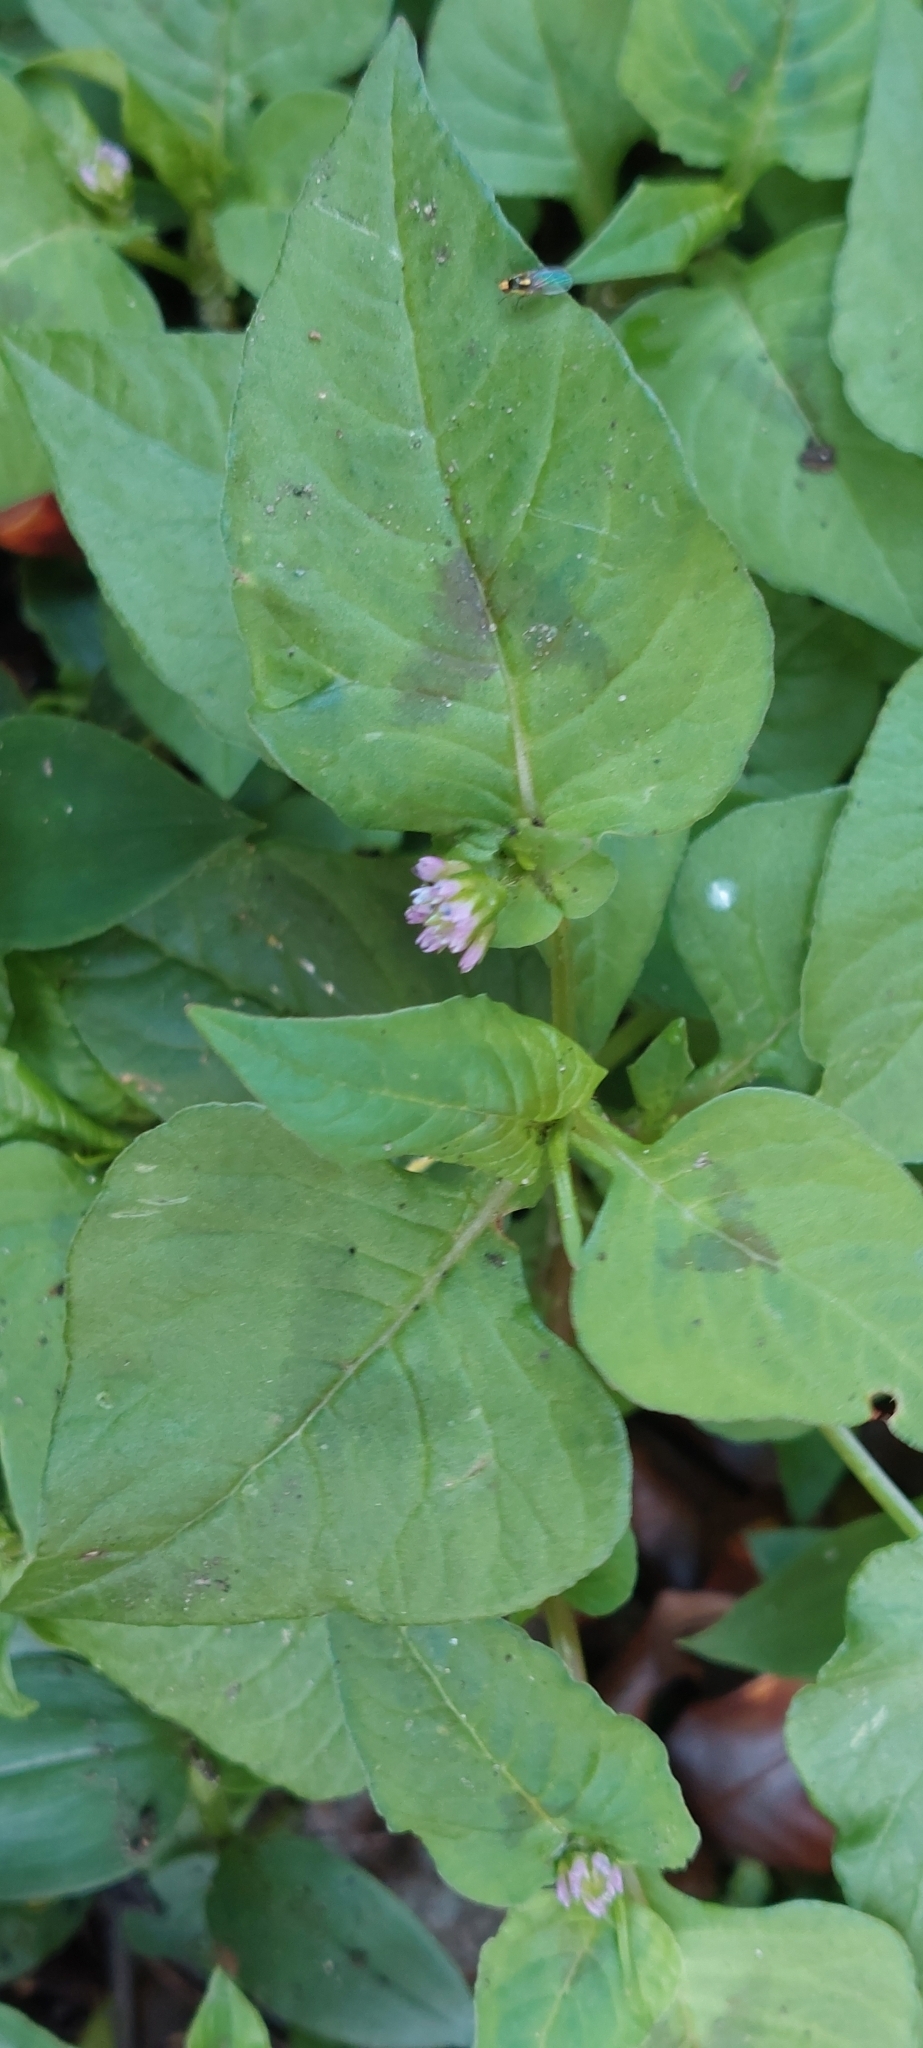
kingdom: Plantae
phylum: Tracheophyta
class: Magnoliopsida
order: Caryophyllales
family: Polygonaceae
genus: Persicaria
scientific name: Persicaria nepalensis
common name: Nepal persicaria
